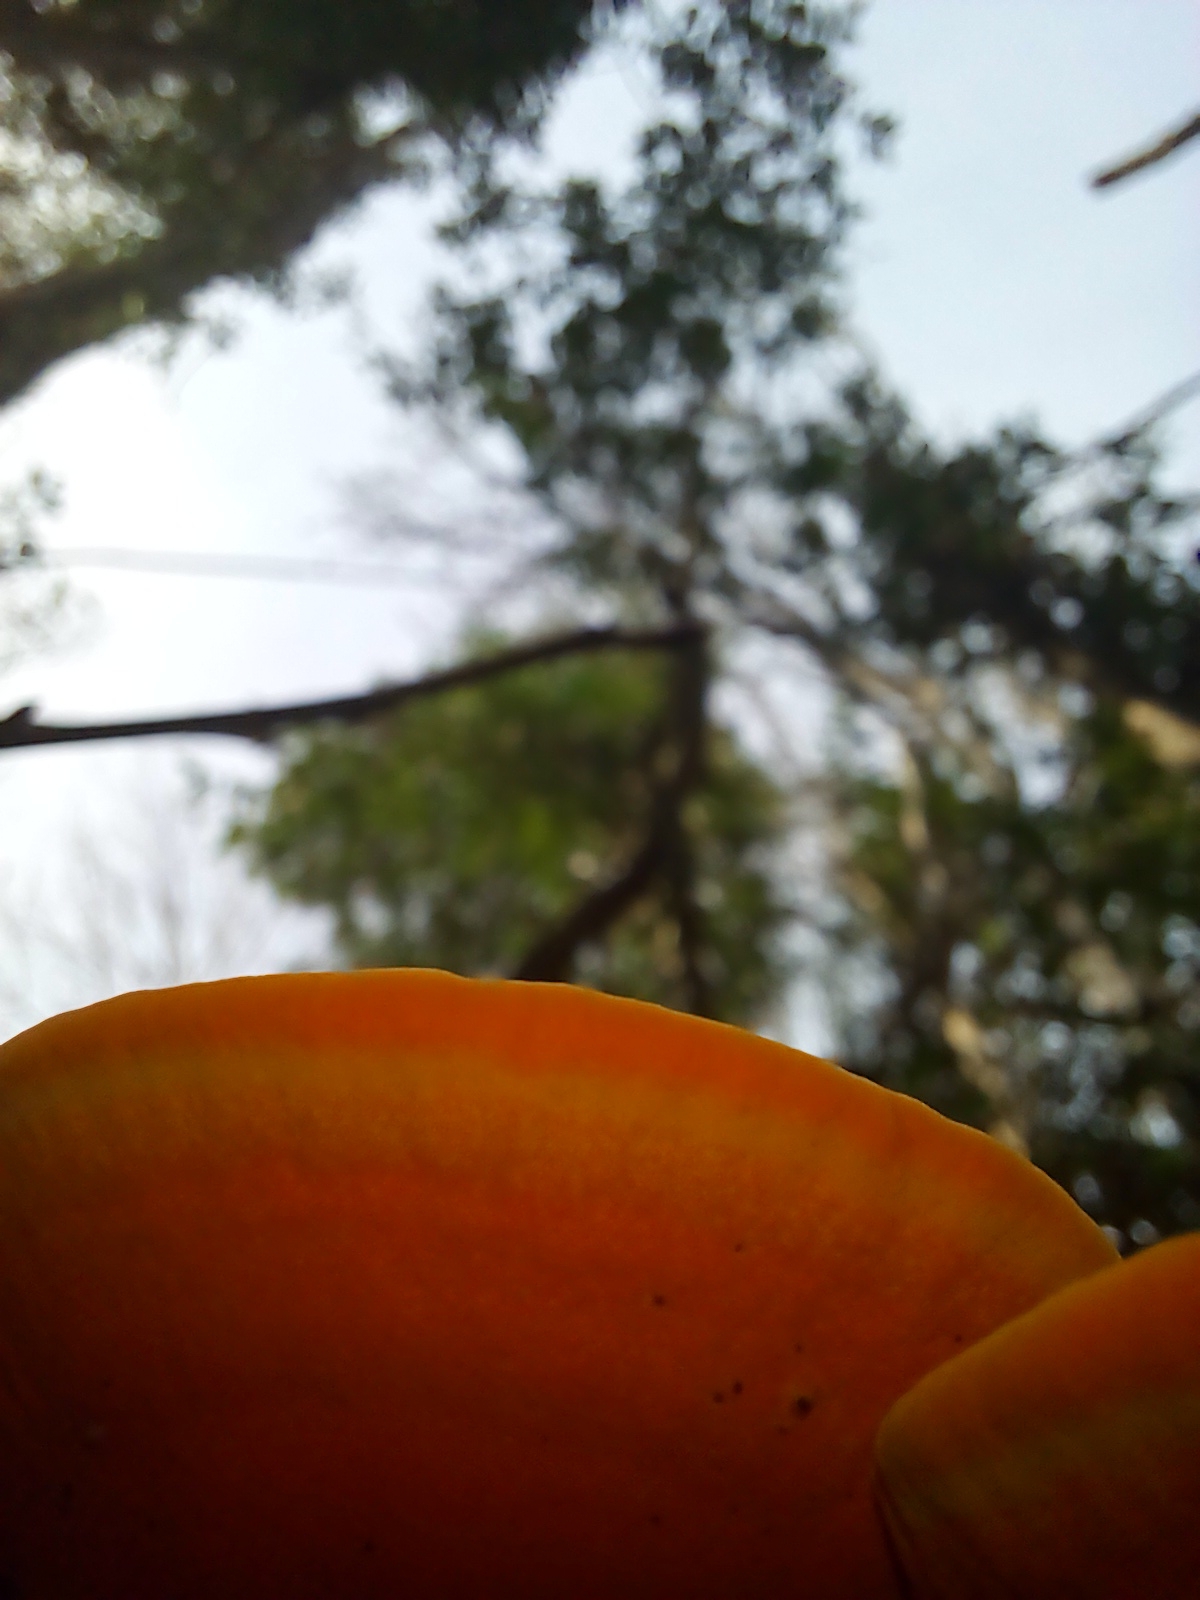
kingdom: Fungi
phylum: Basidiomycota
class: Agaricomycetes
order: Polyporales
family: Polyporaceae
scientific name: Polyporaceae
